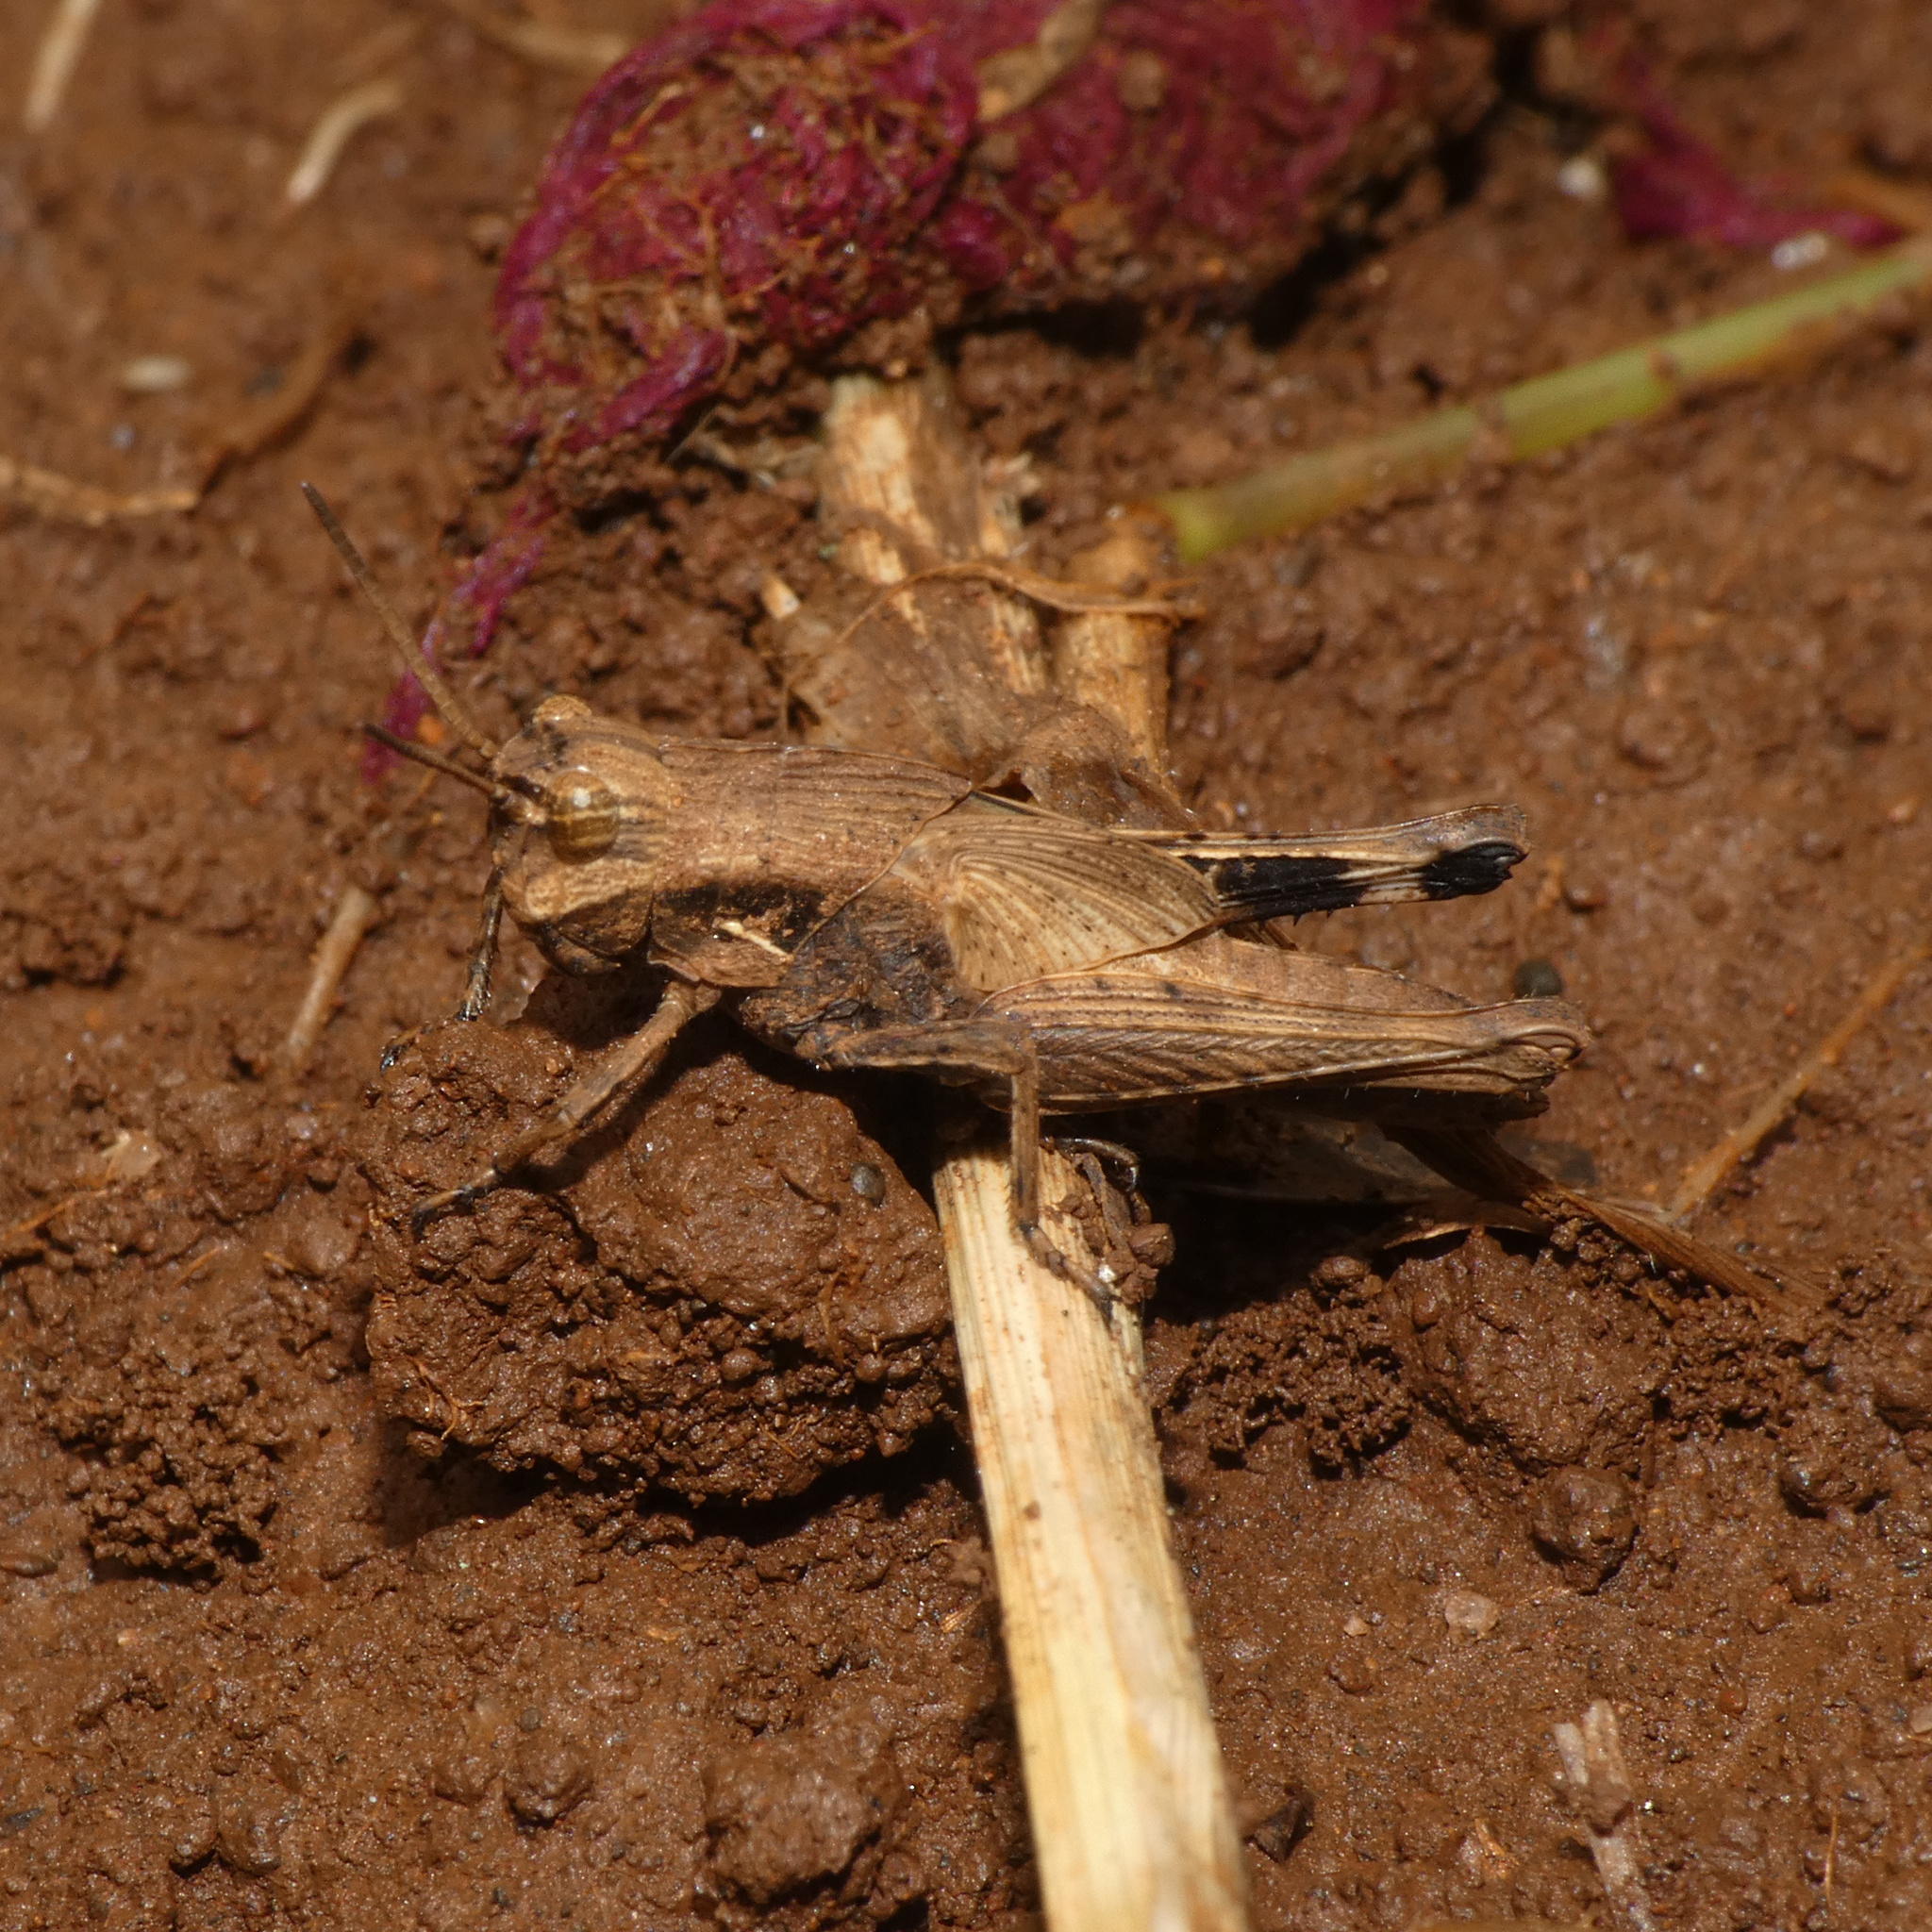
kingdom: Animalia
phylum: Arthropoda
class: Insecta
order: Orthoptera
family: Acrididae
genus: Morphacris
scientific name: Morphacris fasciata
